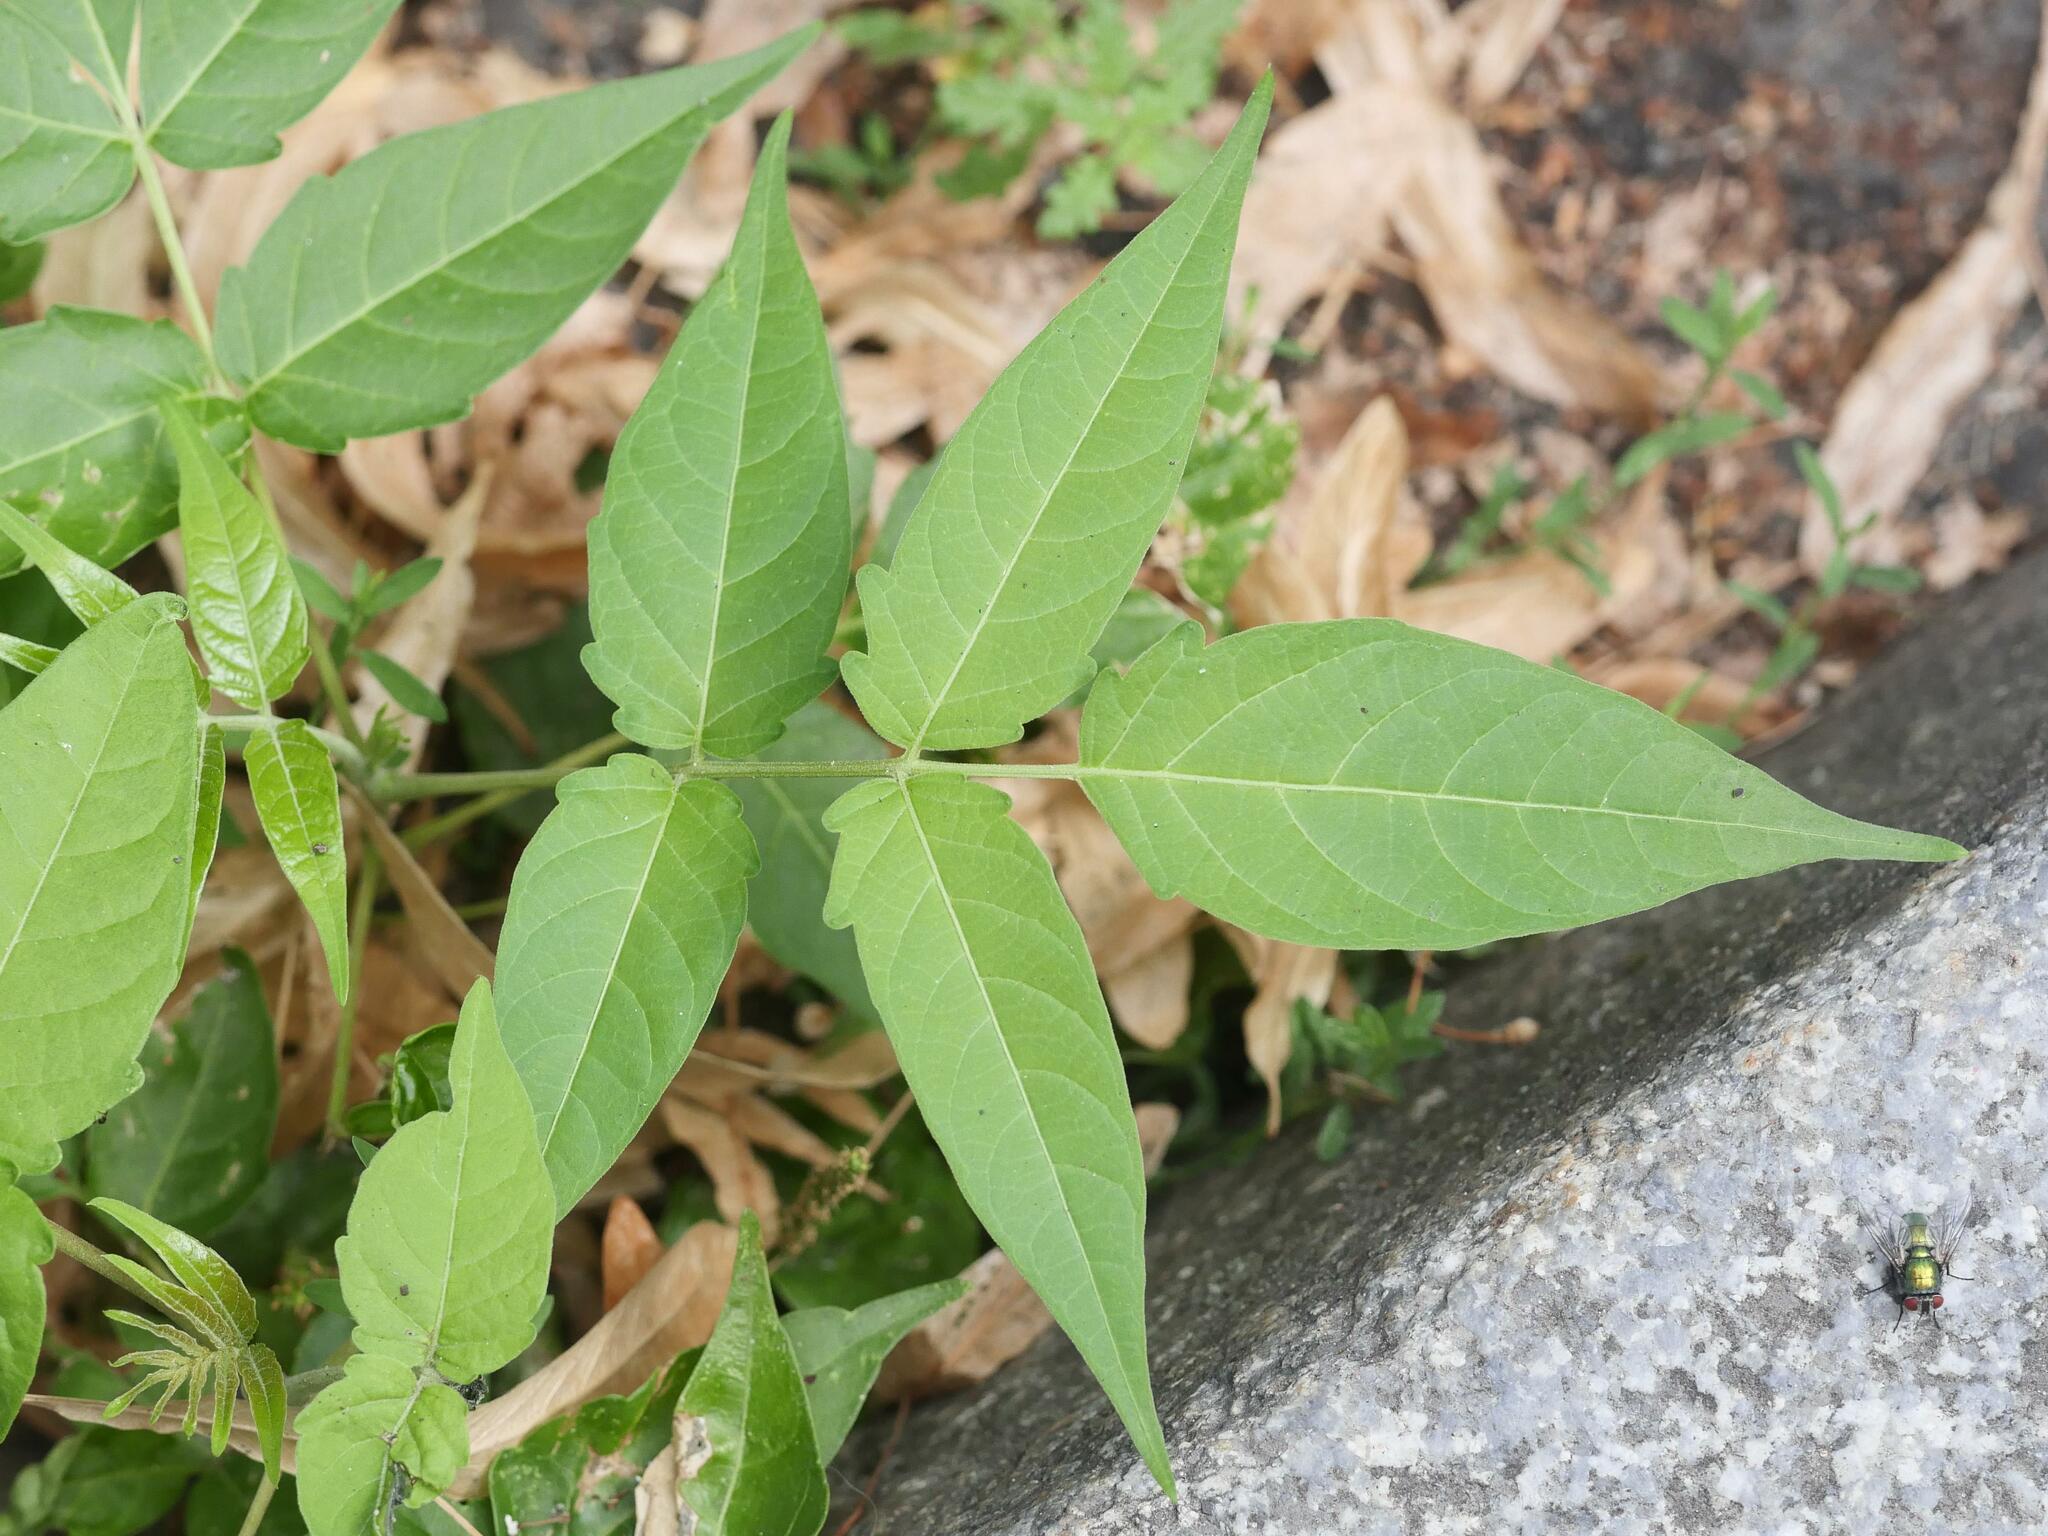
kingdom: Plantae
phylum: Tracheophyta
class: Magnoliopsida
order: Sapindales
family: Simaroubaceae
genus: Ailanthus
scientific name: Ailanthus altissima
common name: Tree-of-heaven
